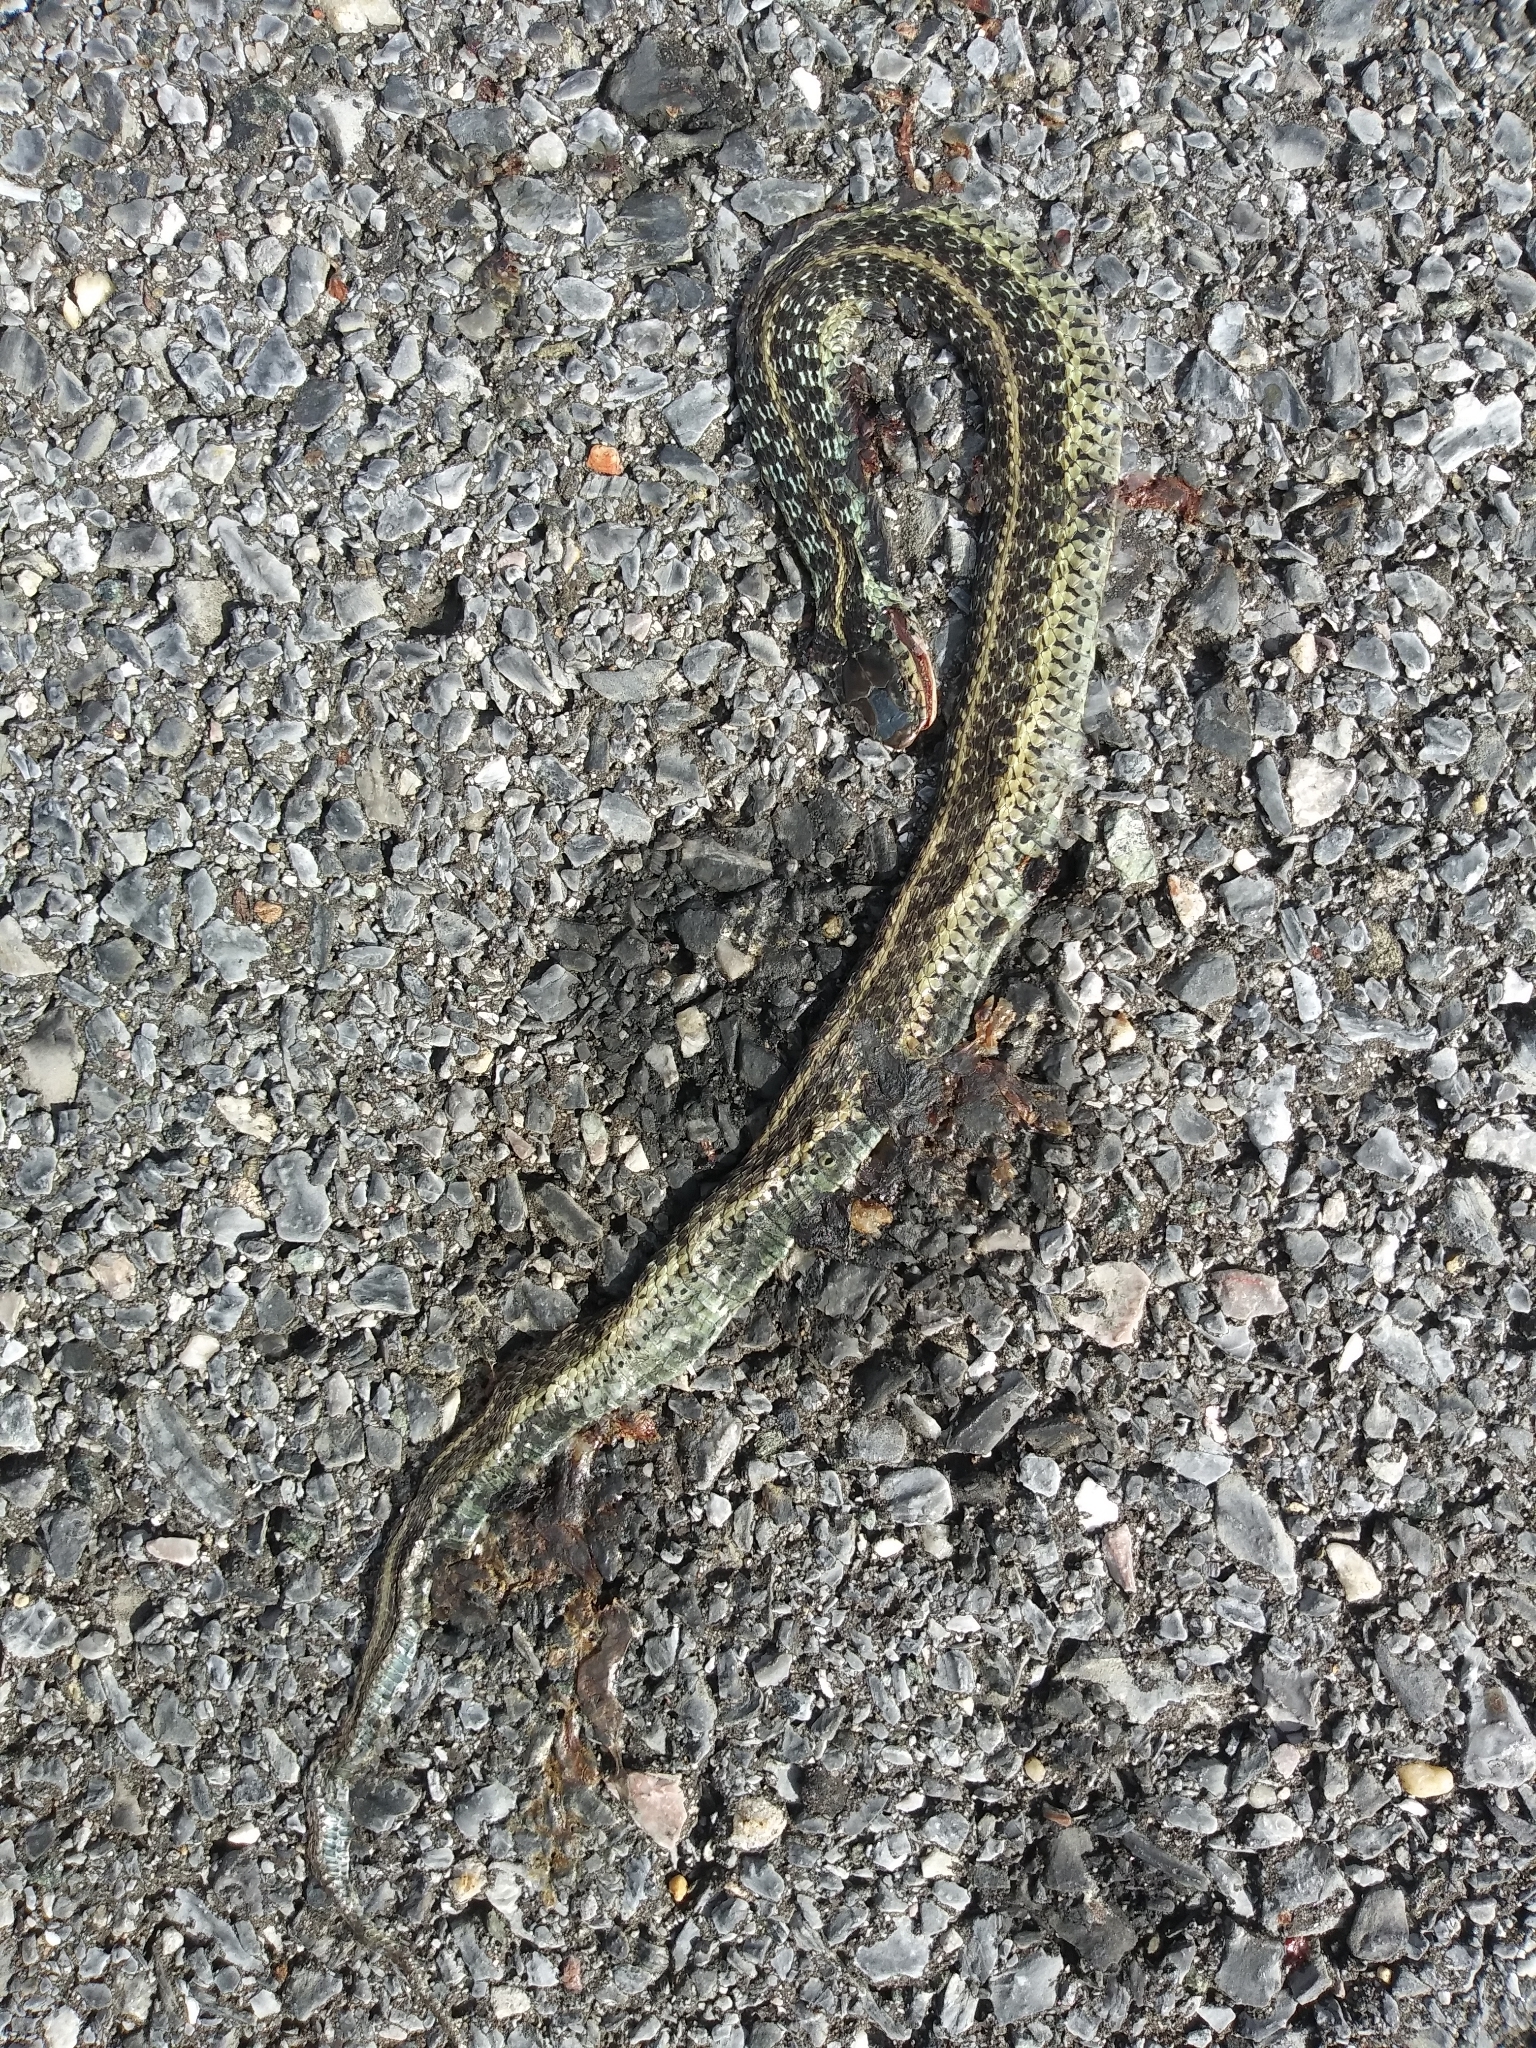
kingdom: Animalia
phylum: Chordata
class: Squamata
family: Colubridae
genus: Thamnophis
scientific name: Thamnophis sirtalis
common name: Common garter snake
